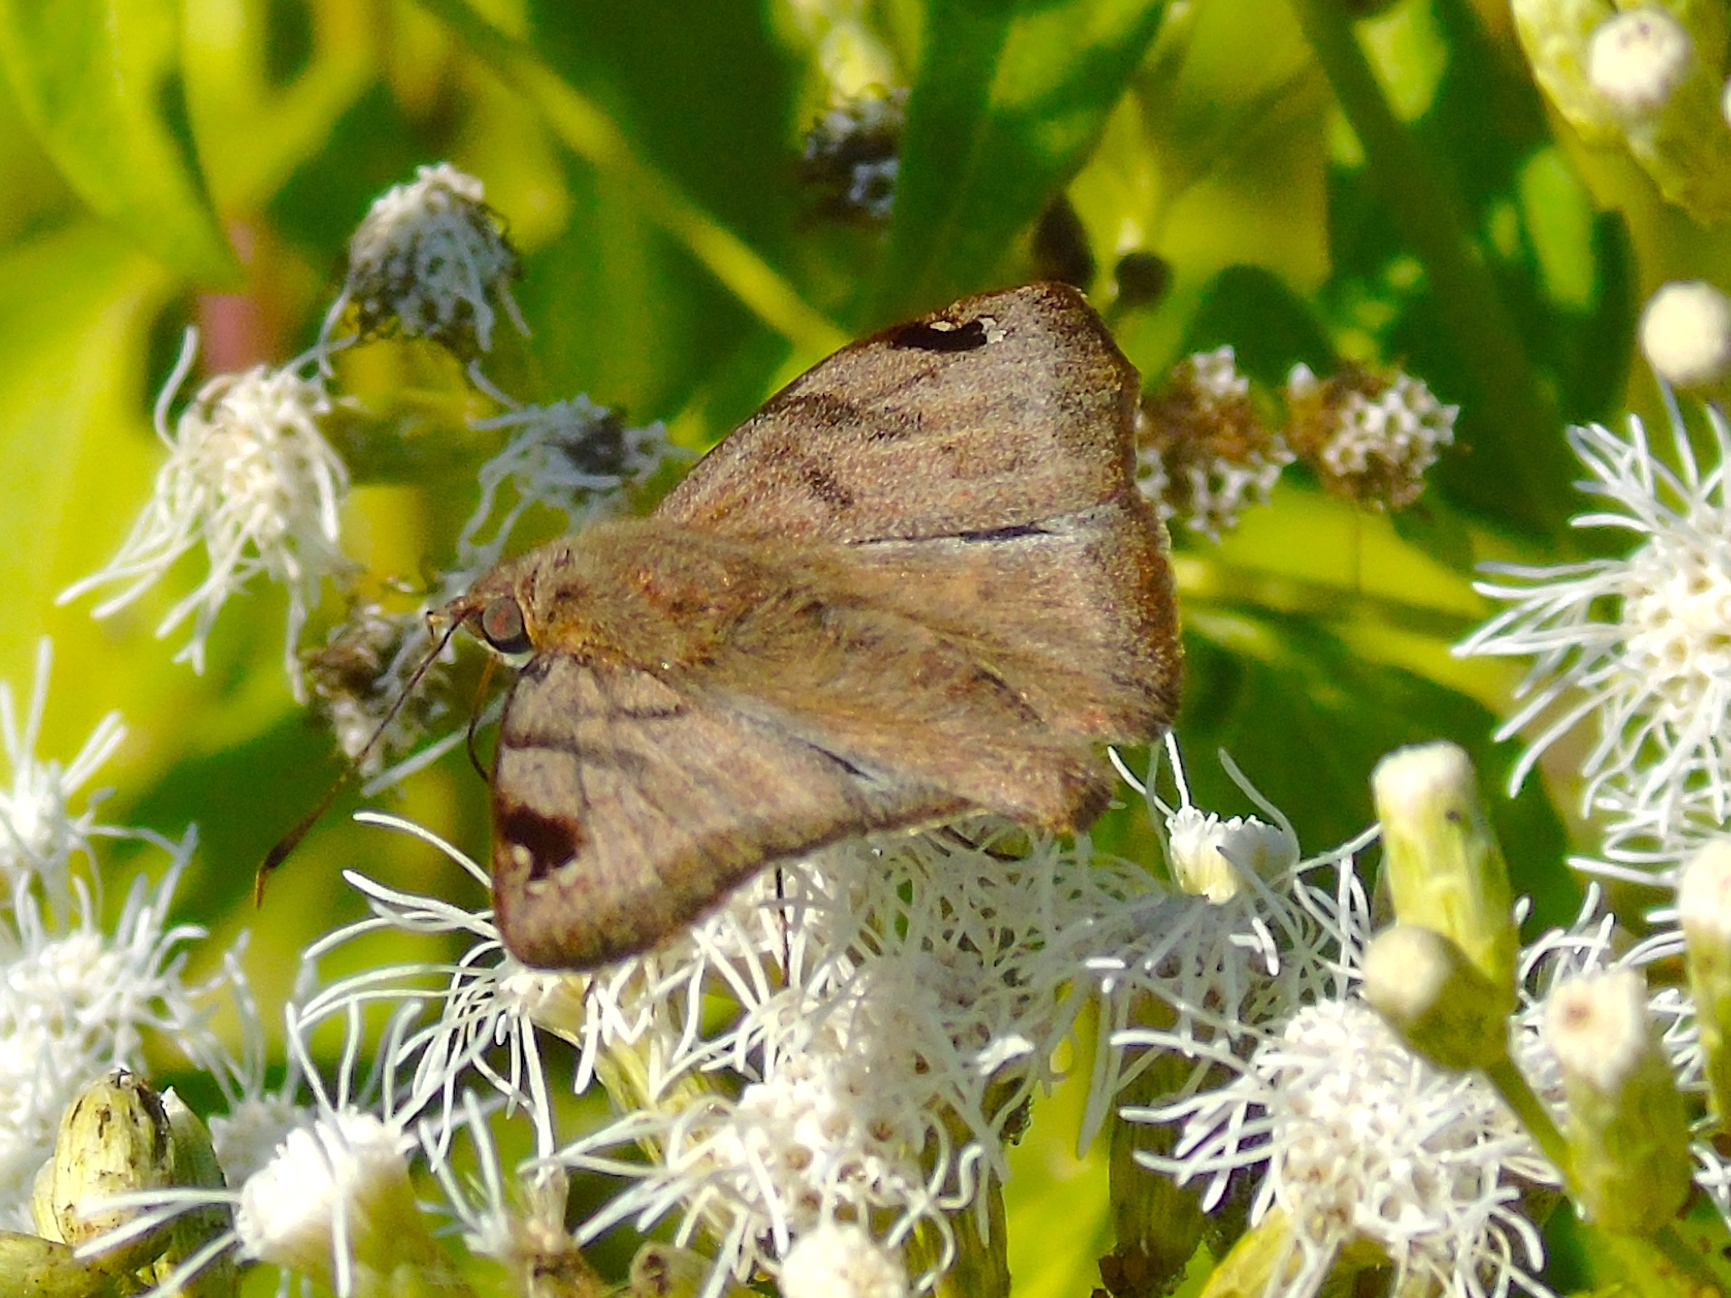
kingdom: Animalia
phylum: Arthropoda
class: Insecta
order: Lepidoptera
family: Hesperiidae
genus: Arteurotia
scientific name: Arteurotia tractipennis
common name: Starred skipper
